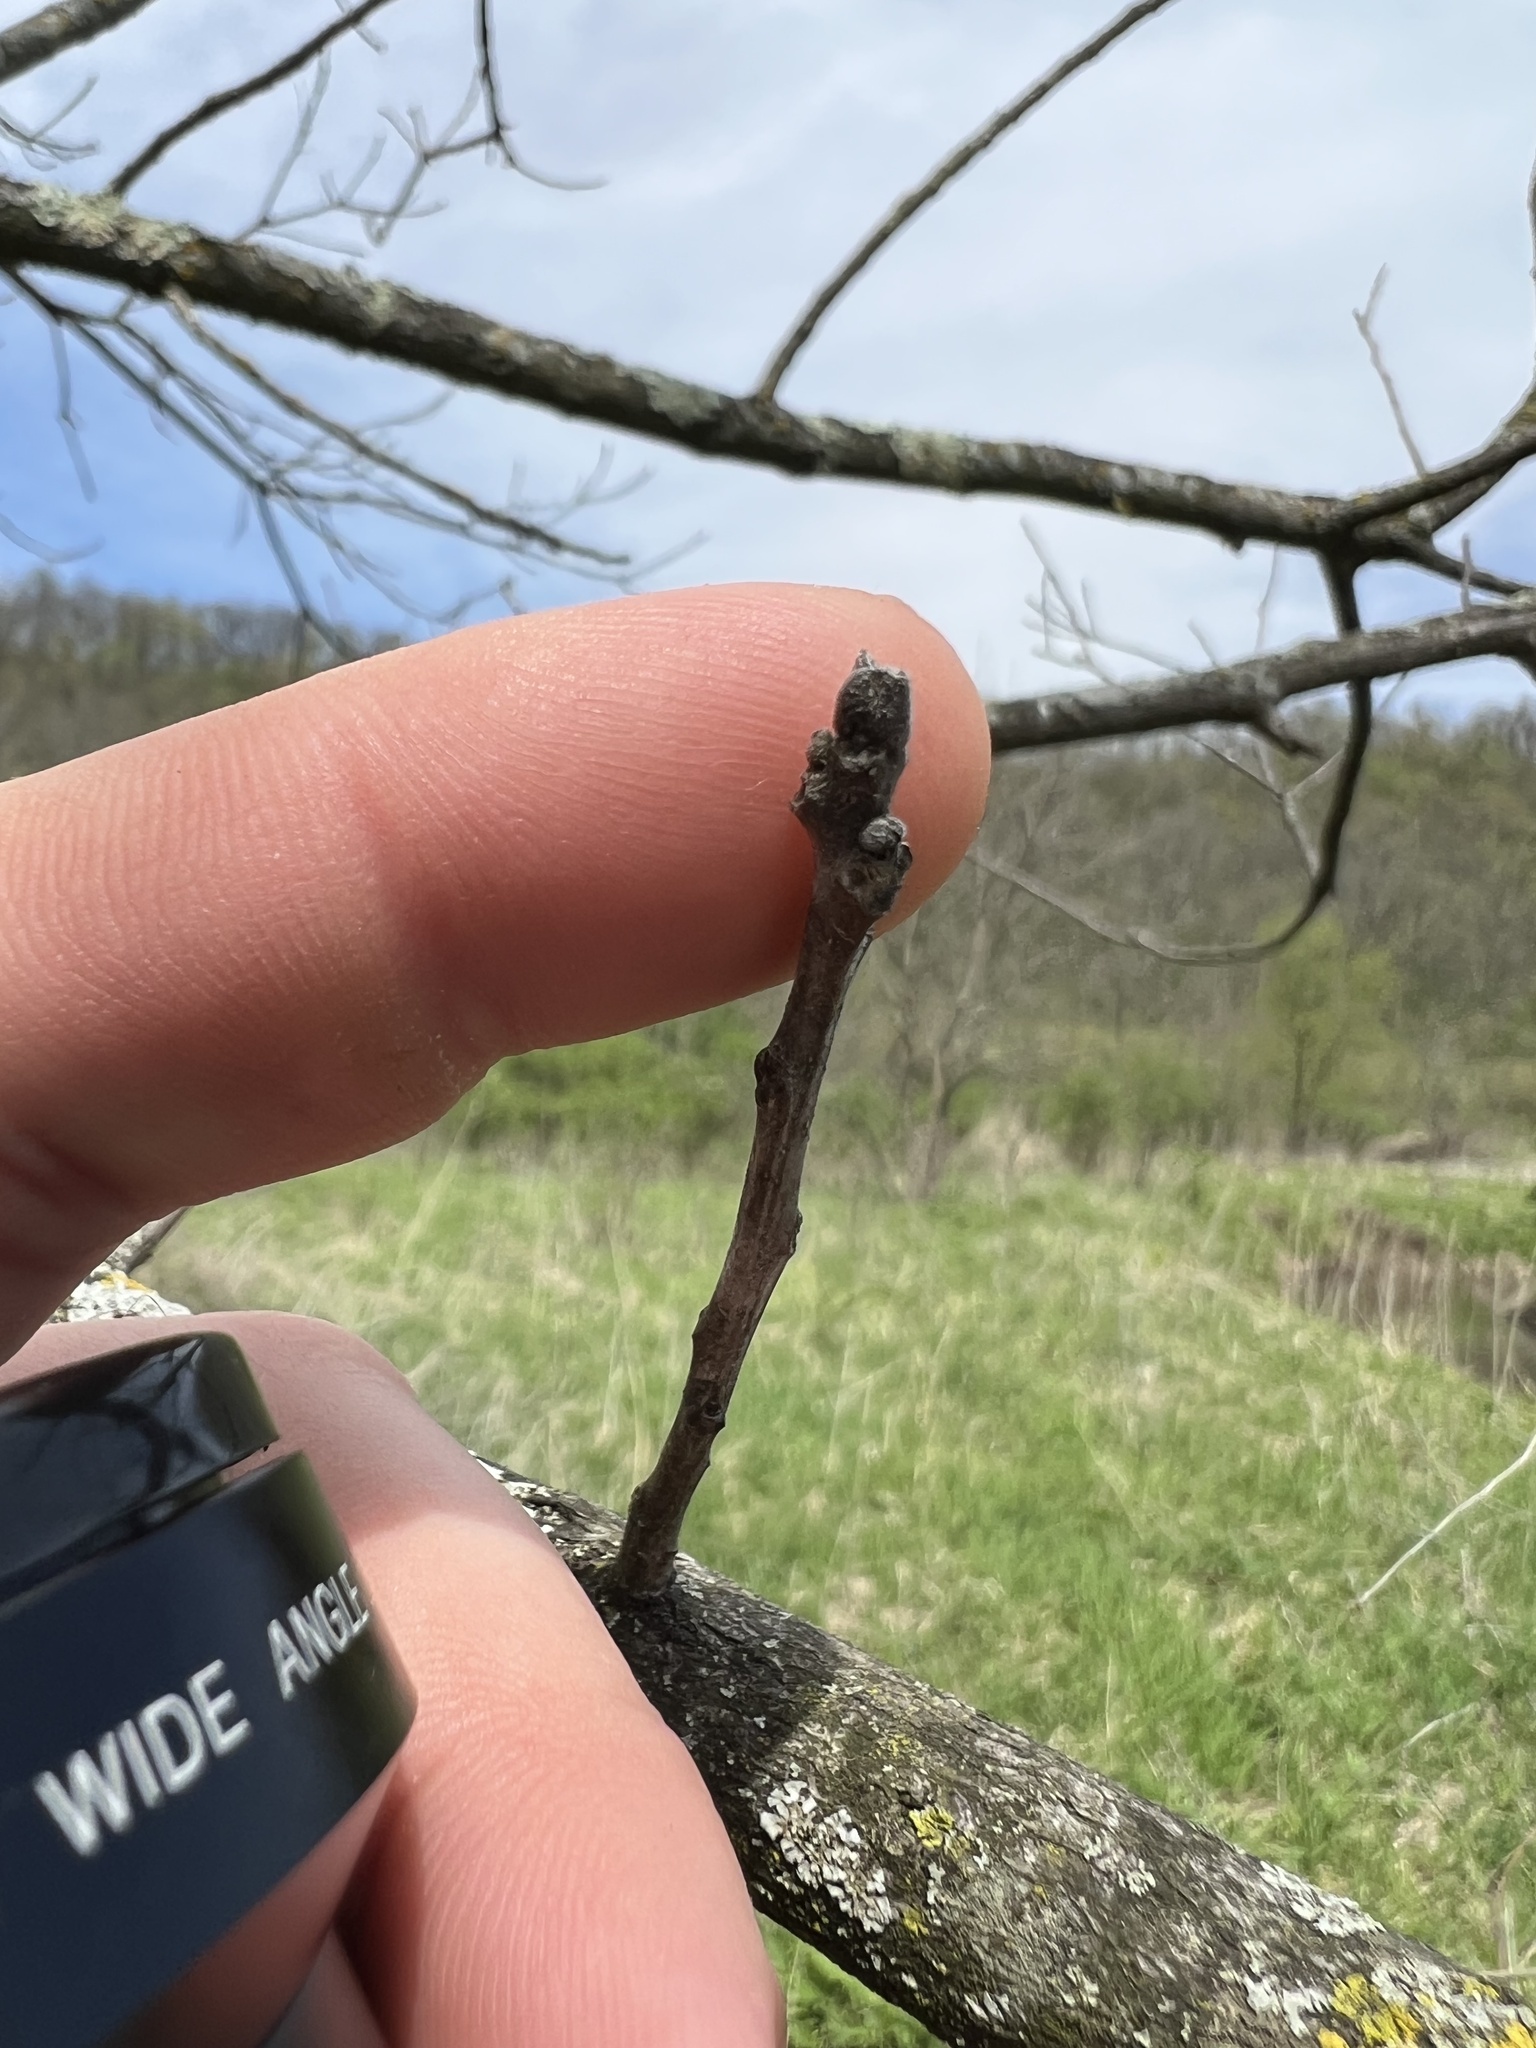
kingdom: Plantae
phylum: Tracheophyta
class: Magnoliopsida
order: Fagales
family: Juglandaceae
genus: Juglans
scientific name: Juglans nigra
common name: Black walnut
